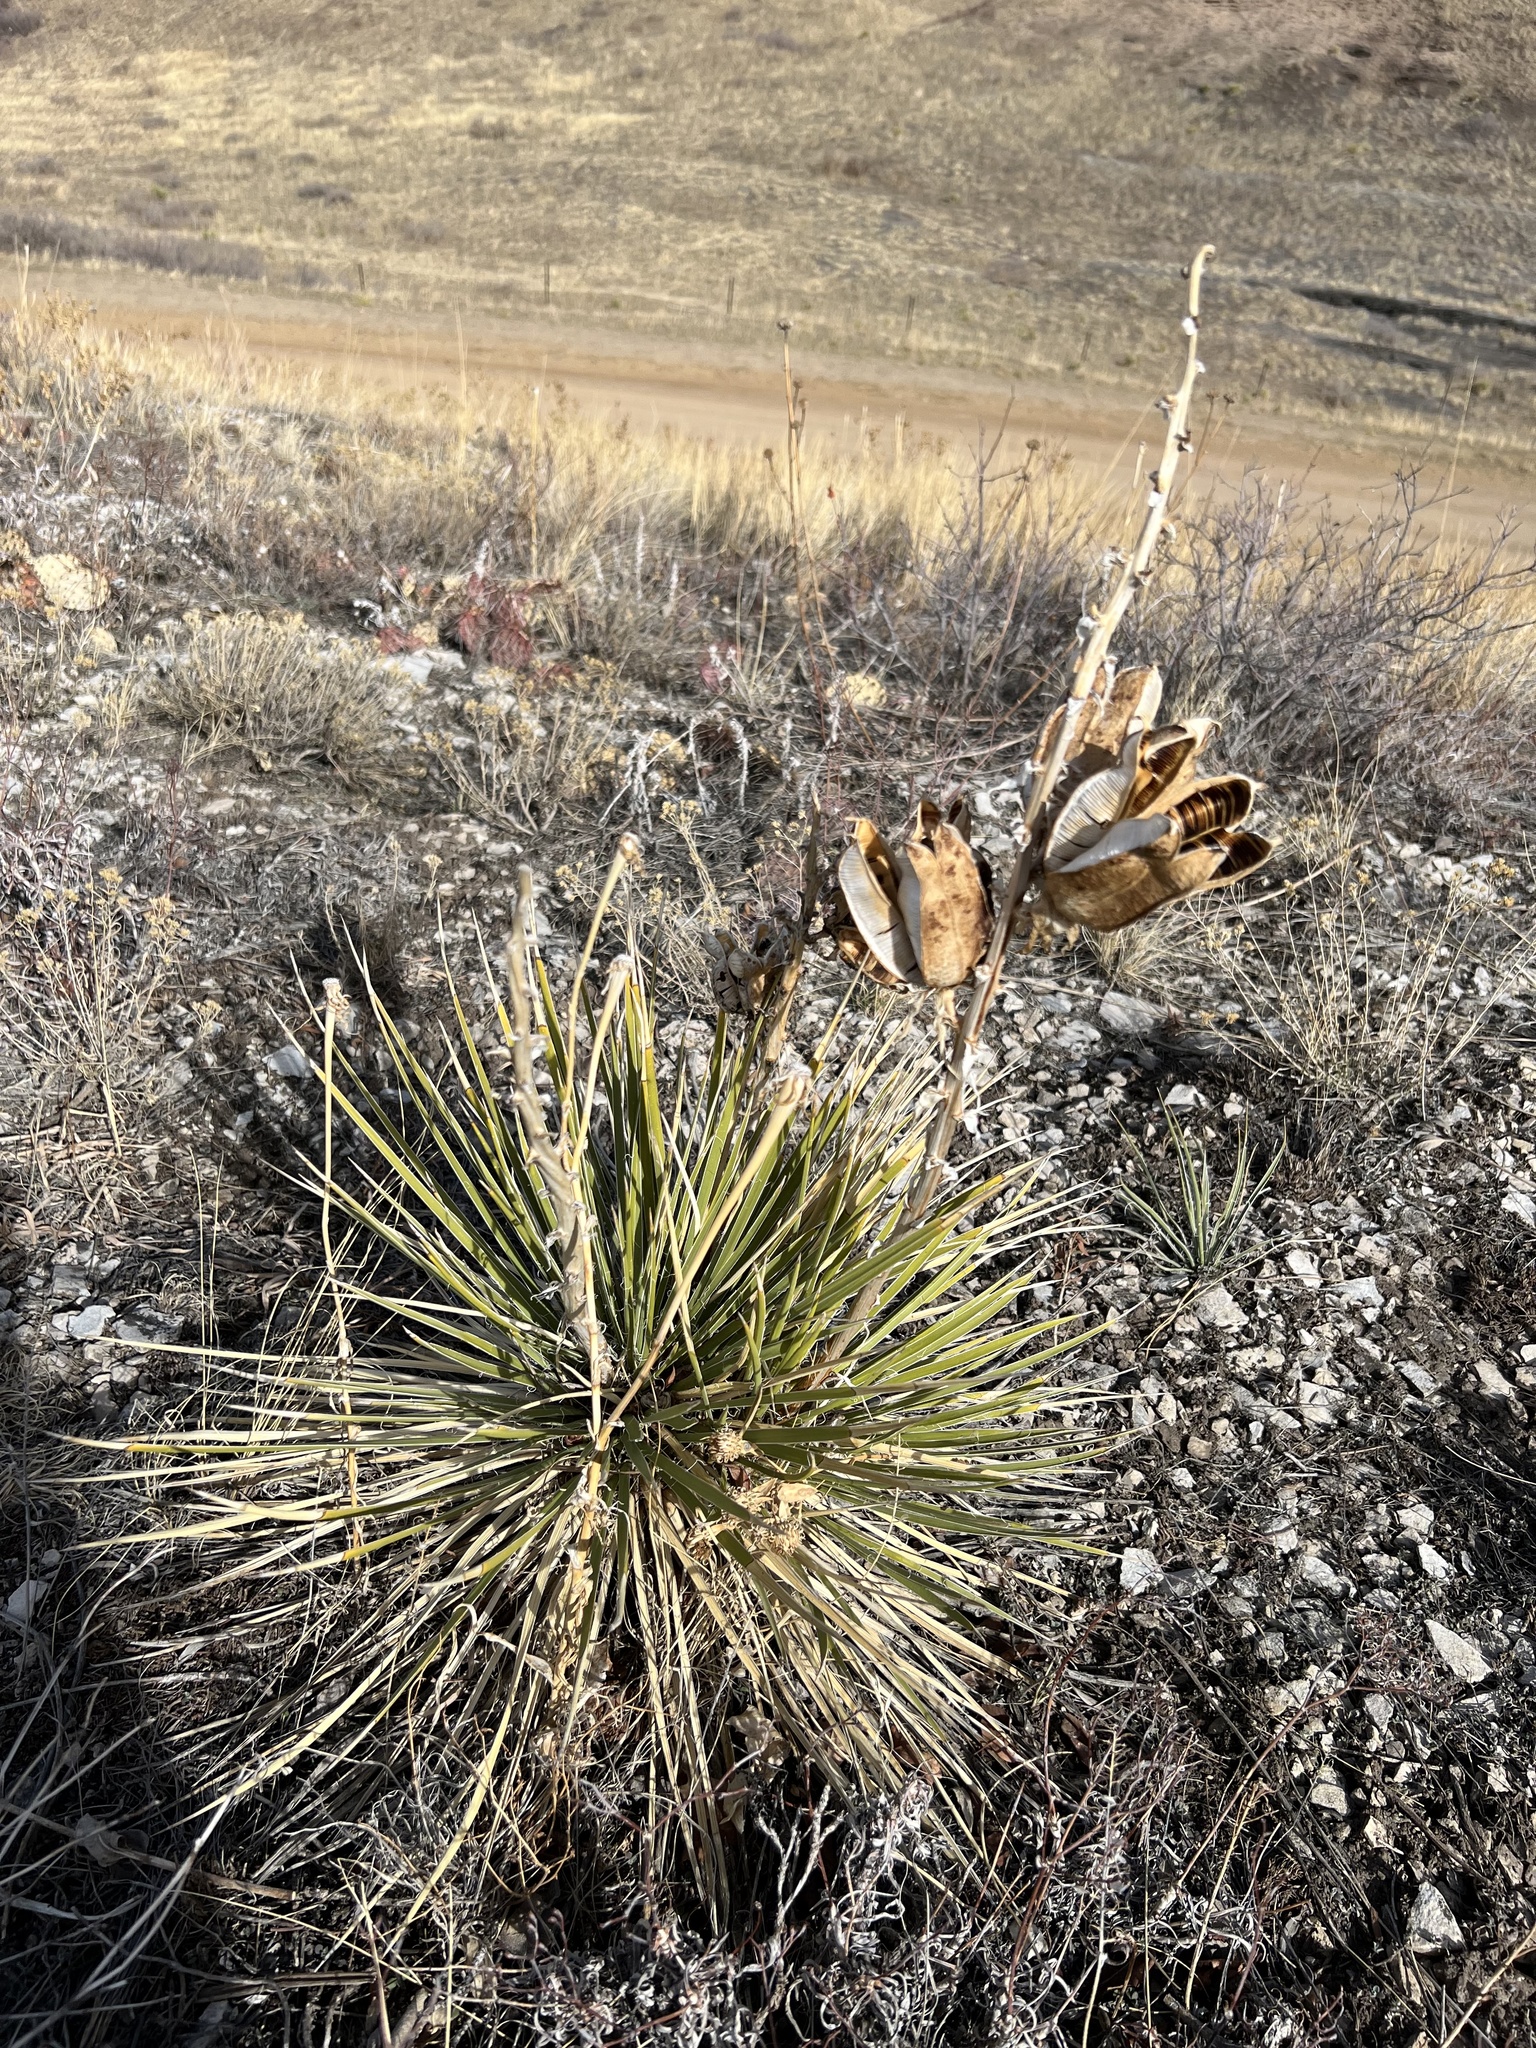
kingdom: Plantae
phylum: Tracheophyta
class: Liliopsida
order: Asparagales
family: Asparagaceae
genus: Yucca
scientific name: Yucca glauca
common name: Great plains yucca
